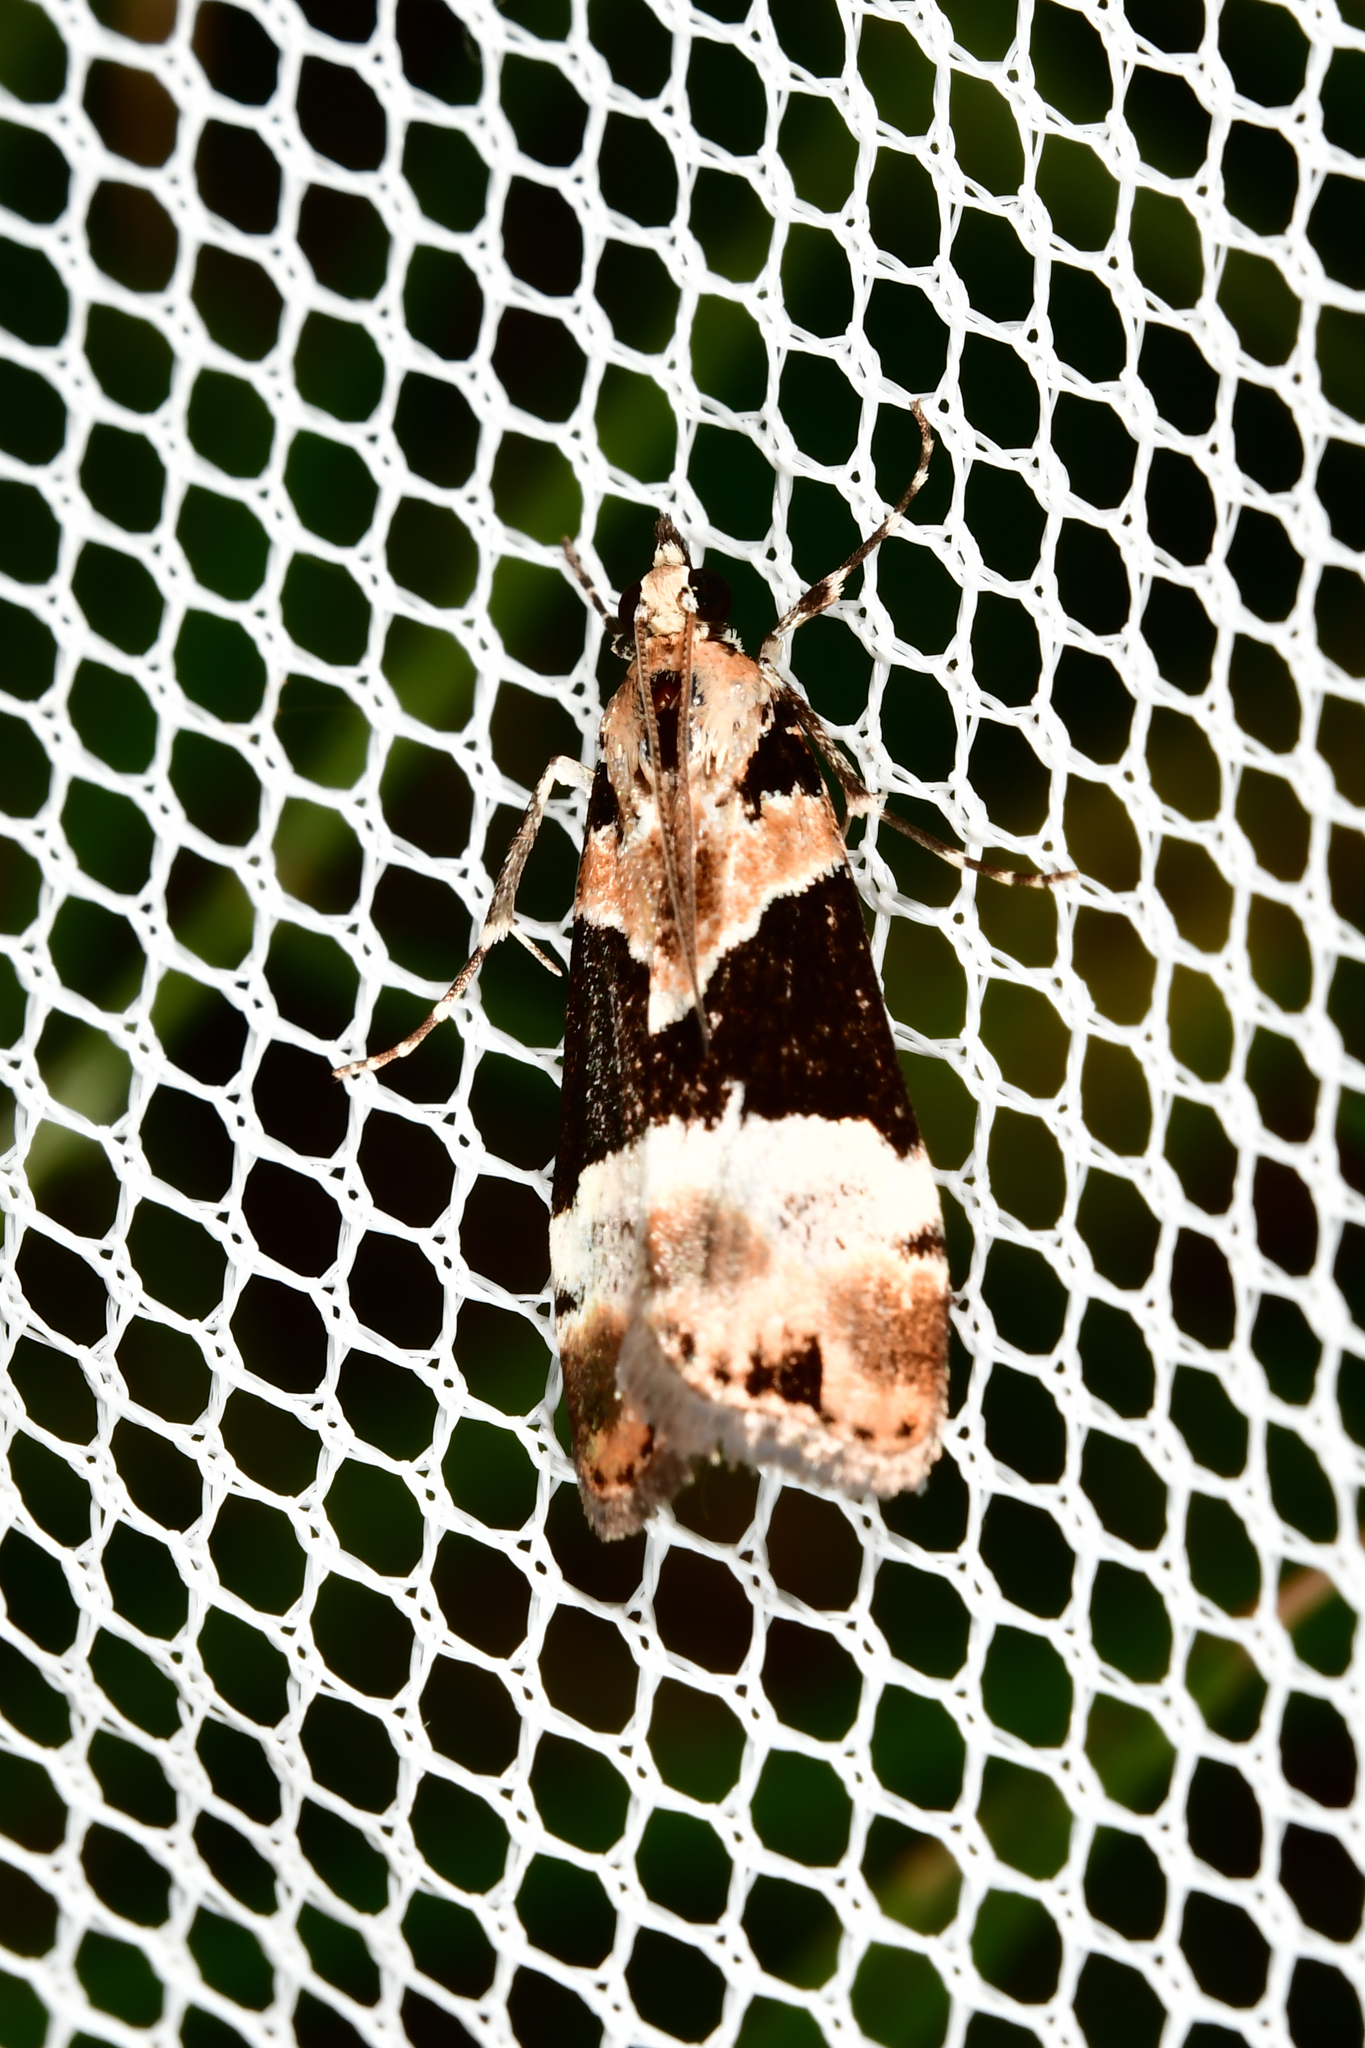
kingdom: Animalia
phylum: Arthropoda
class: Insecta
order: Lepidoptera
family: Crambidae
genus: Eudonia
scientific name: Eudonia aspidota
